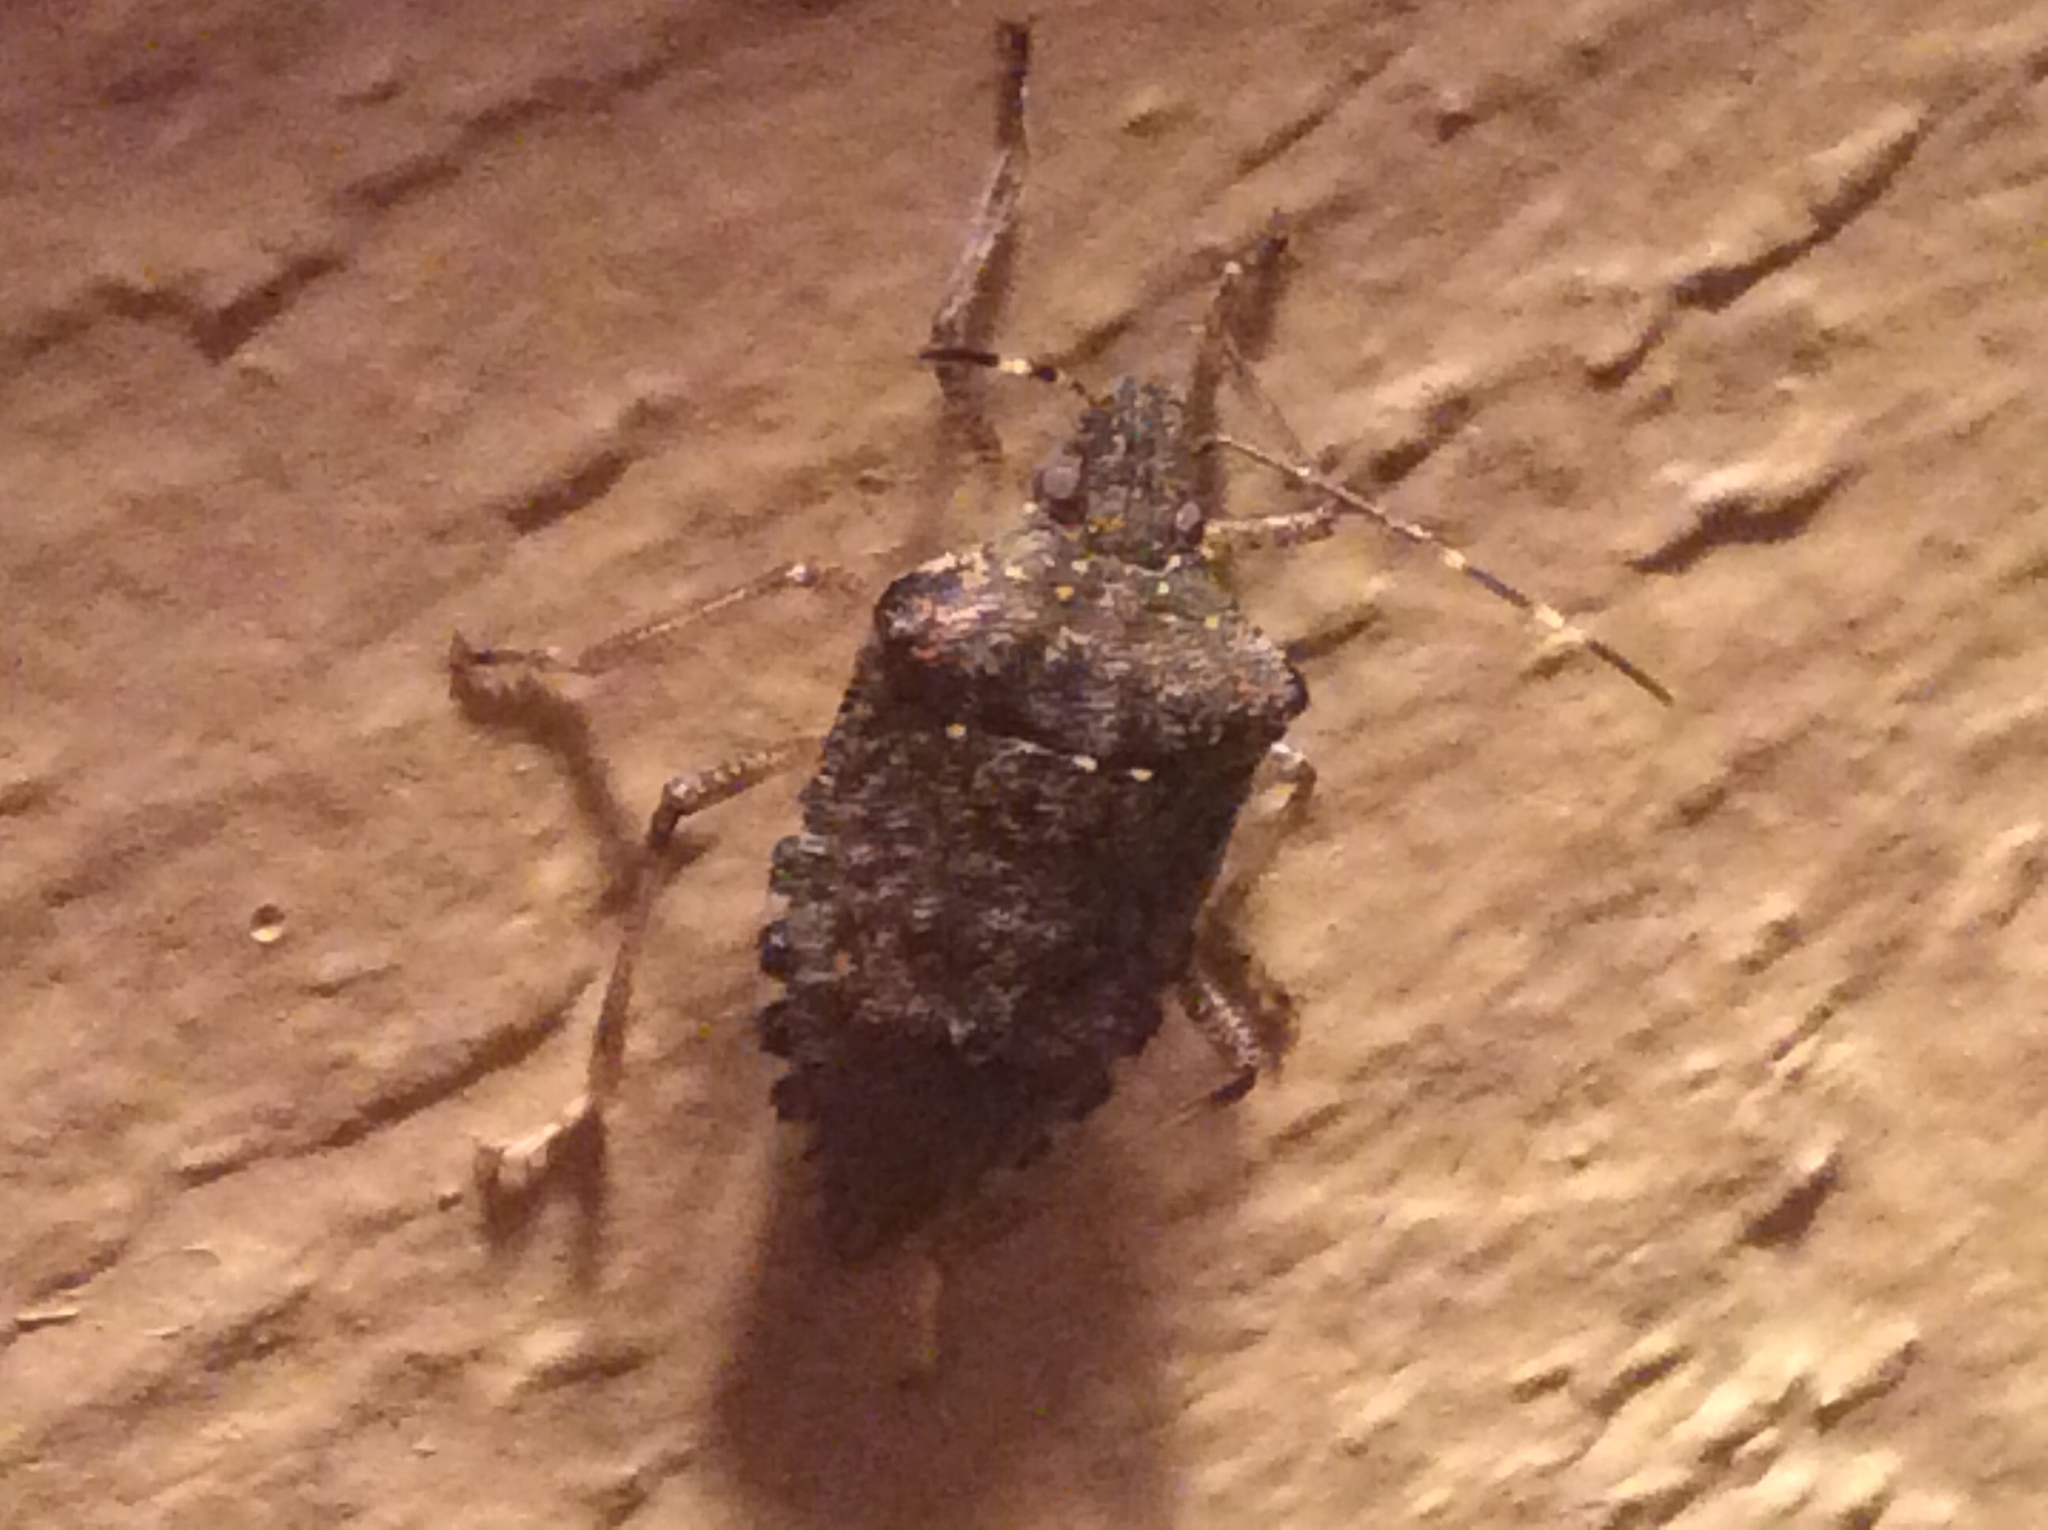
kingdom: Animalia
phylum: Arthropoda
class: Insecta
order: Hemiptera
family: Pentatomidae
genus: Halyomorpha
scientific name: Halyomorpha halys
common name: Brown marmorated stink bug
